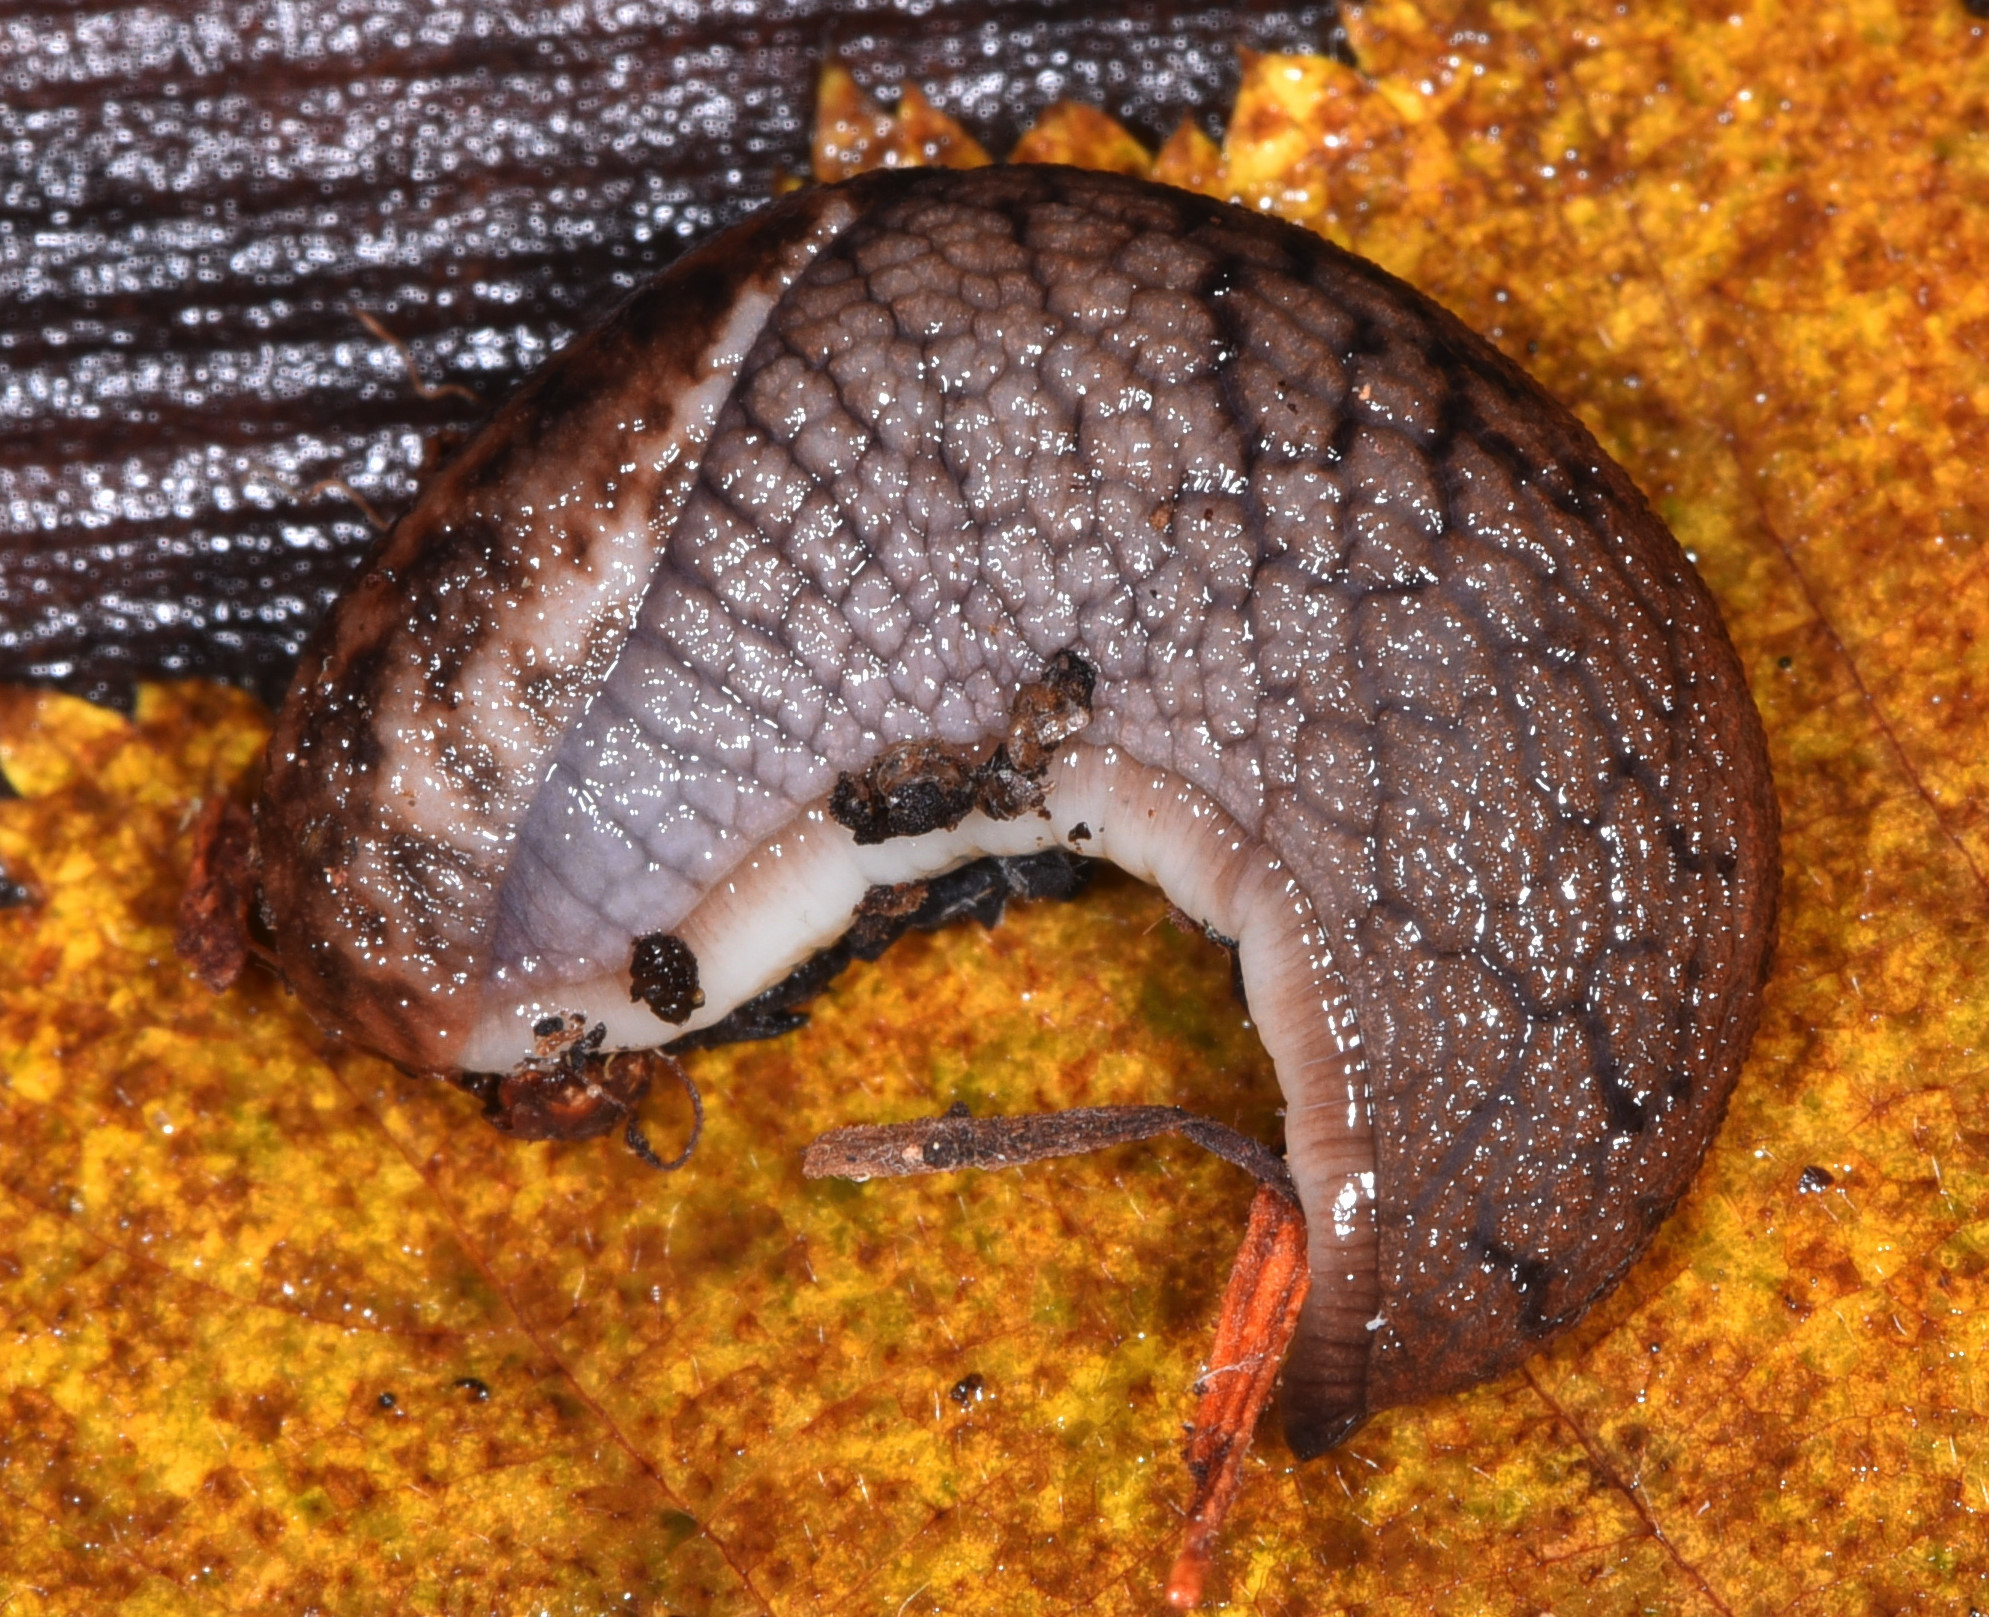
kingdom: Animalia
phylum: Mollusca
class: Gastropoda
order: Stylommatophora
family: Ariolimacidae
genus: Prophysaon
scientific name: Prophysaon andersonii
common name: Reticulate taildropper
